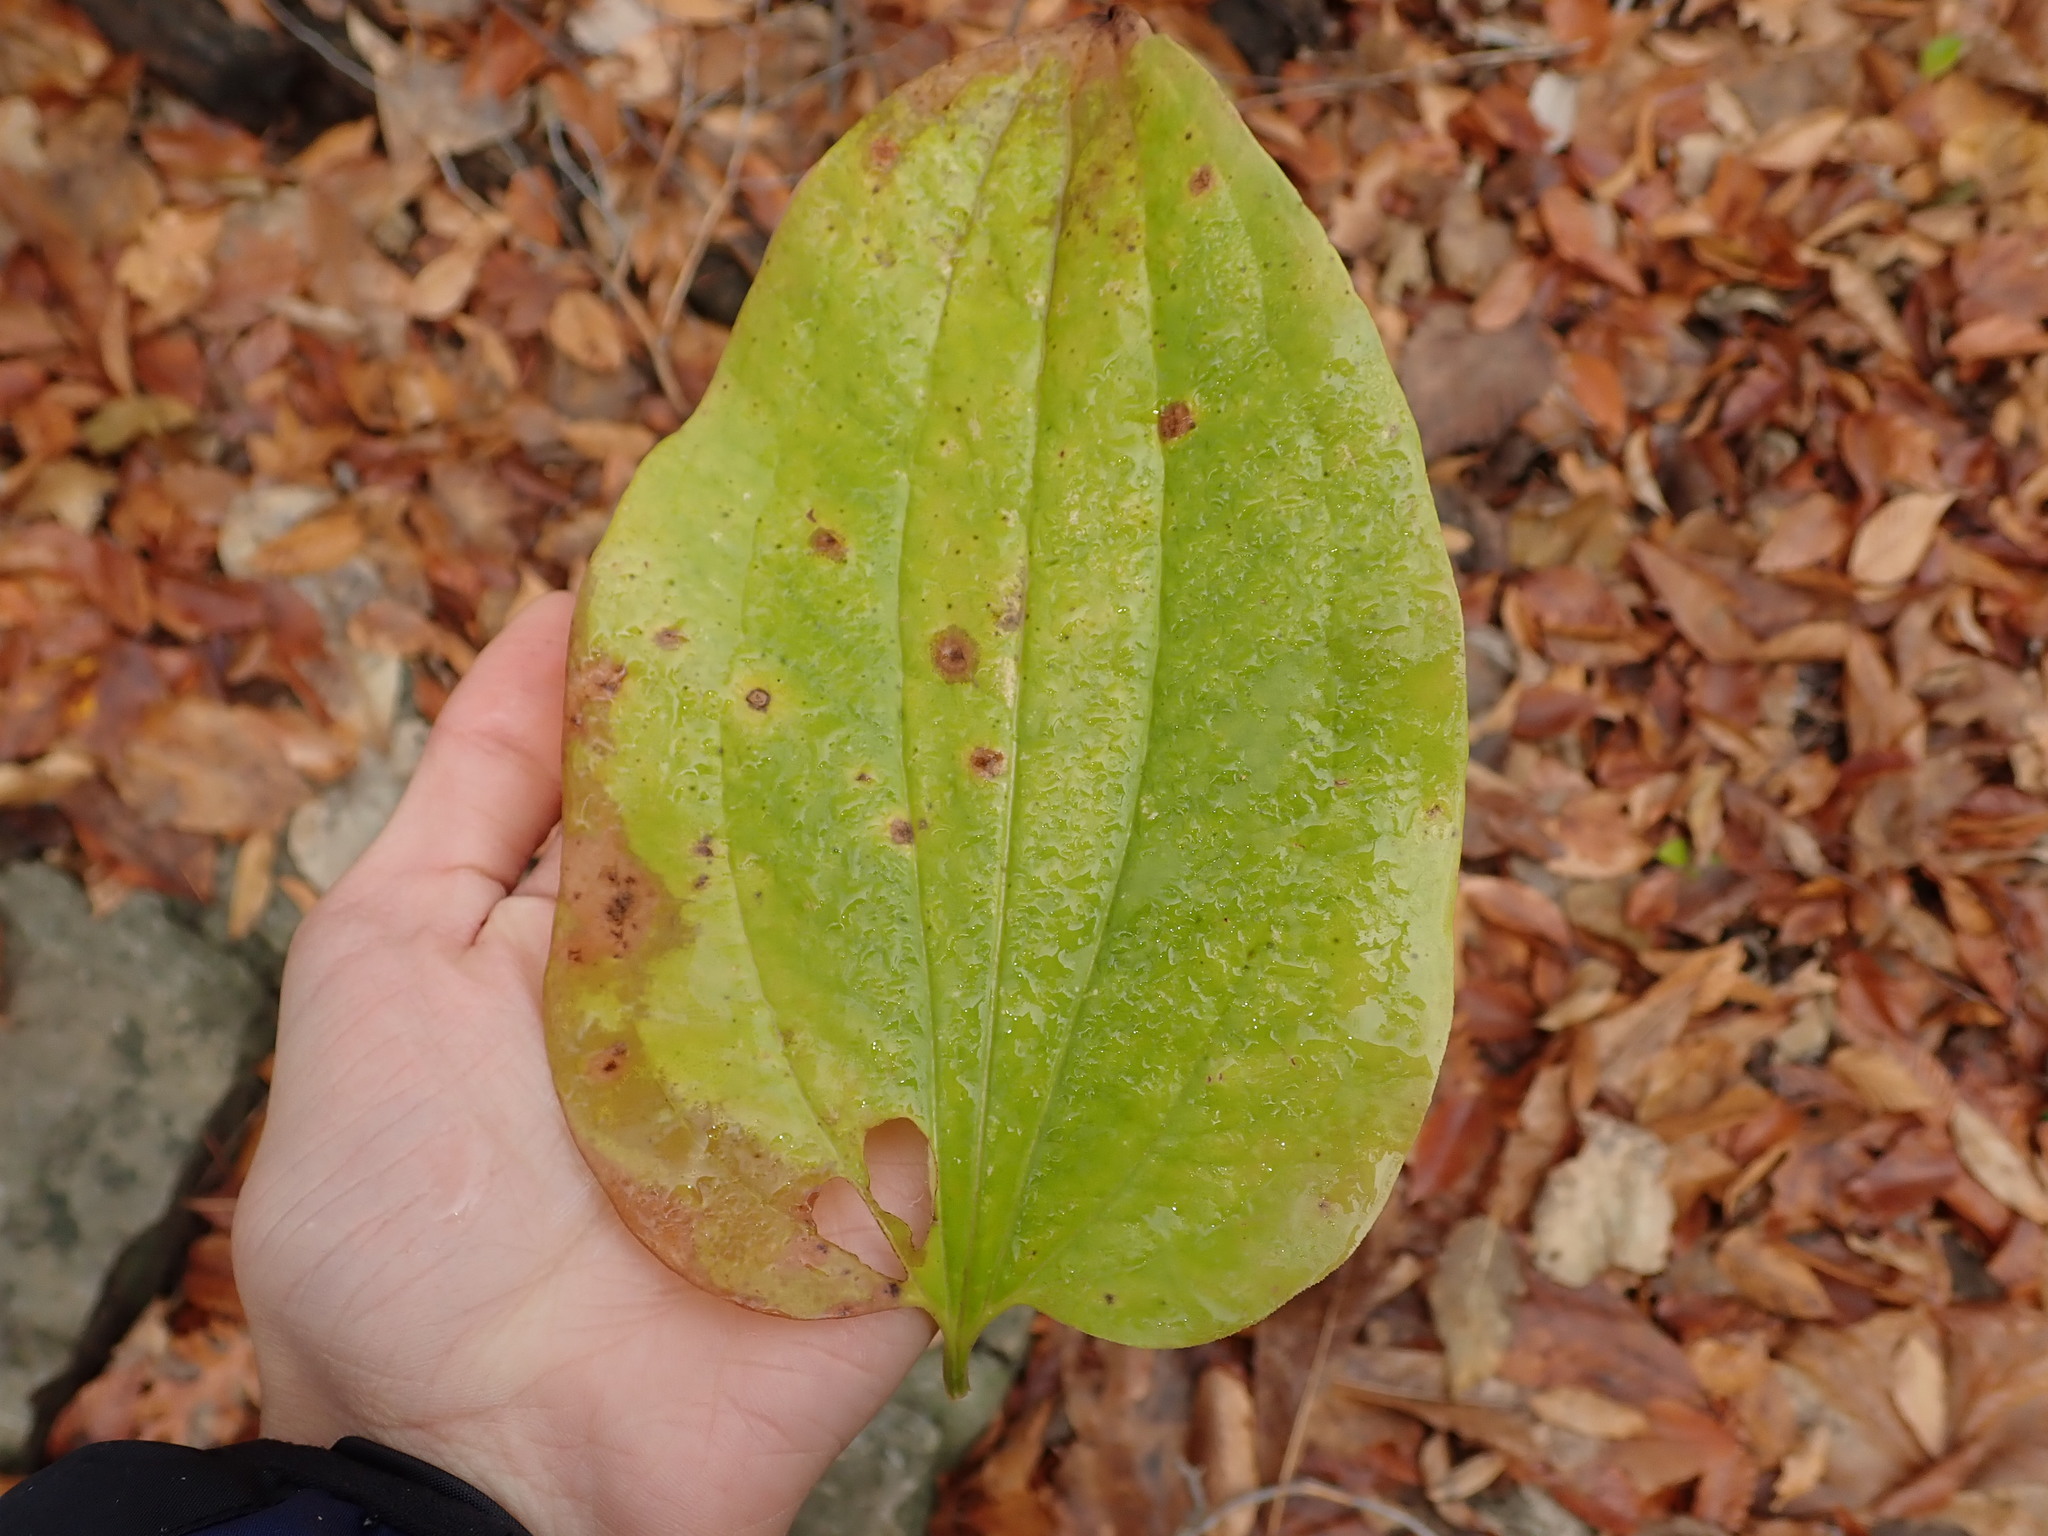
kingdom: Plantae
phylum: Tracheophyta
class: Liliopsida
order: Liliales
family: Smilacaceae
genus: Smilax
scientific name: Smilax tamnoides
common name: Hellfetter
